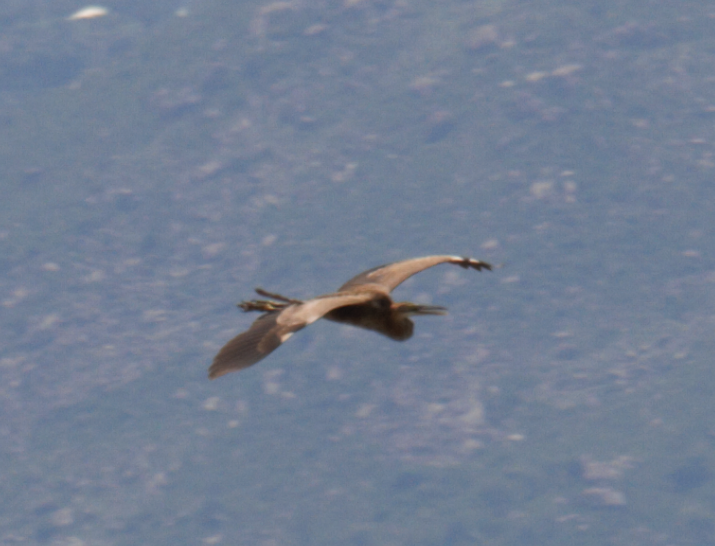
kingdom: Animalia
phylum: Chordata
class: Aves
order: Pelecaniformes
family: Ardeidae
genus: Ardea
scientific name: Ardea purpurea
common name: Purple heron
